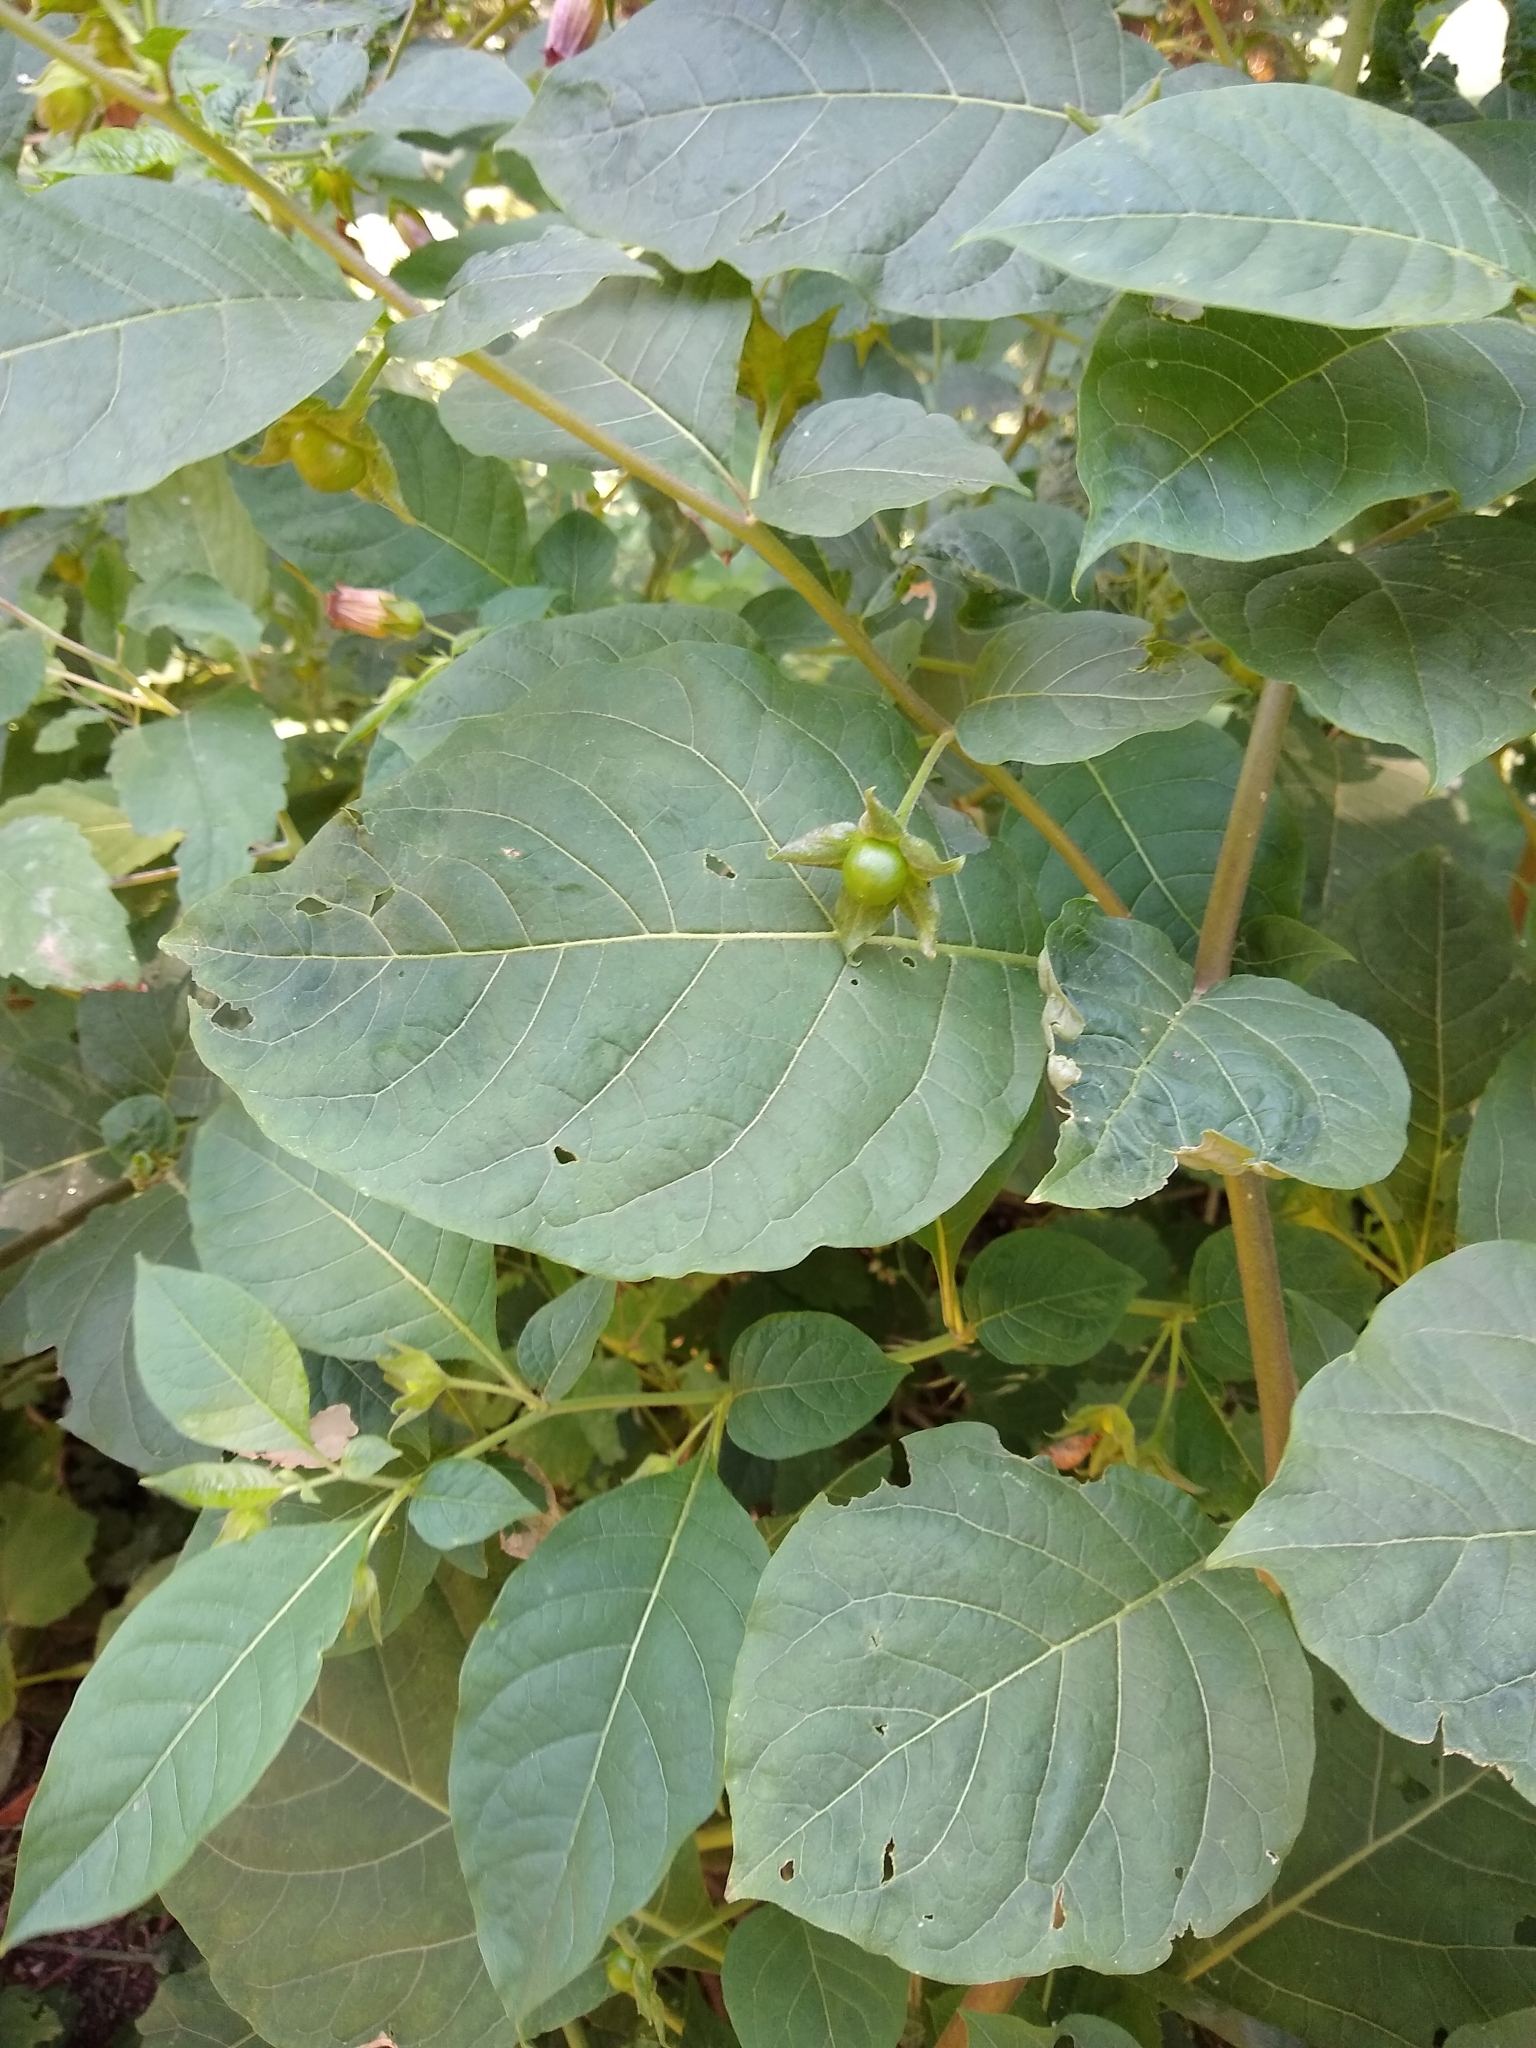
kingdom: Plantae
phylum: Tracheophyta
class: Magnoliopsida
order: Solanales
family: Solanaceae
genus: Atropa
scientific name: Atropa belladonna
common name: Deadly nightshade
